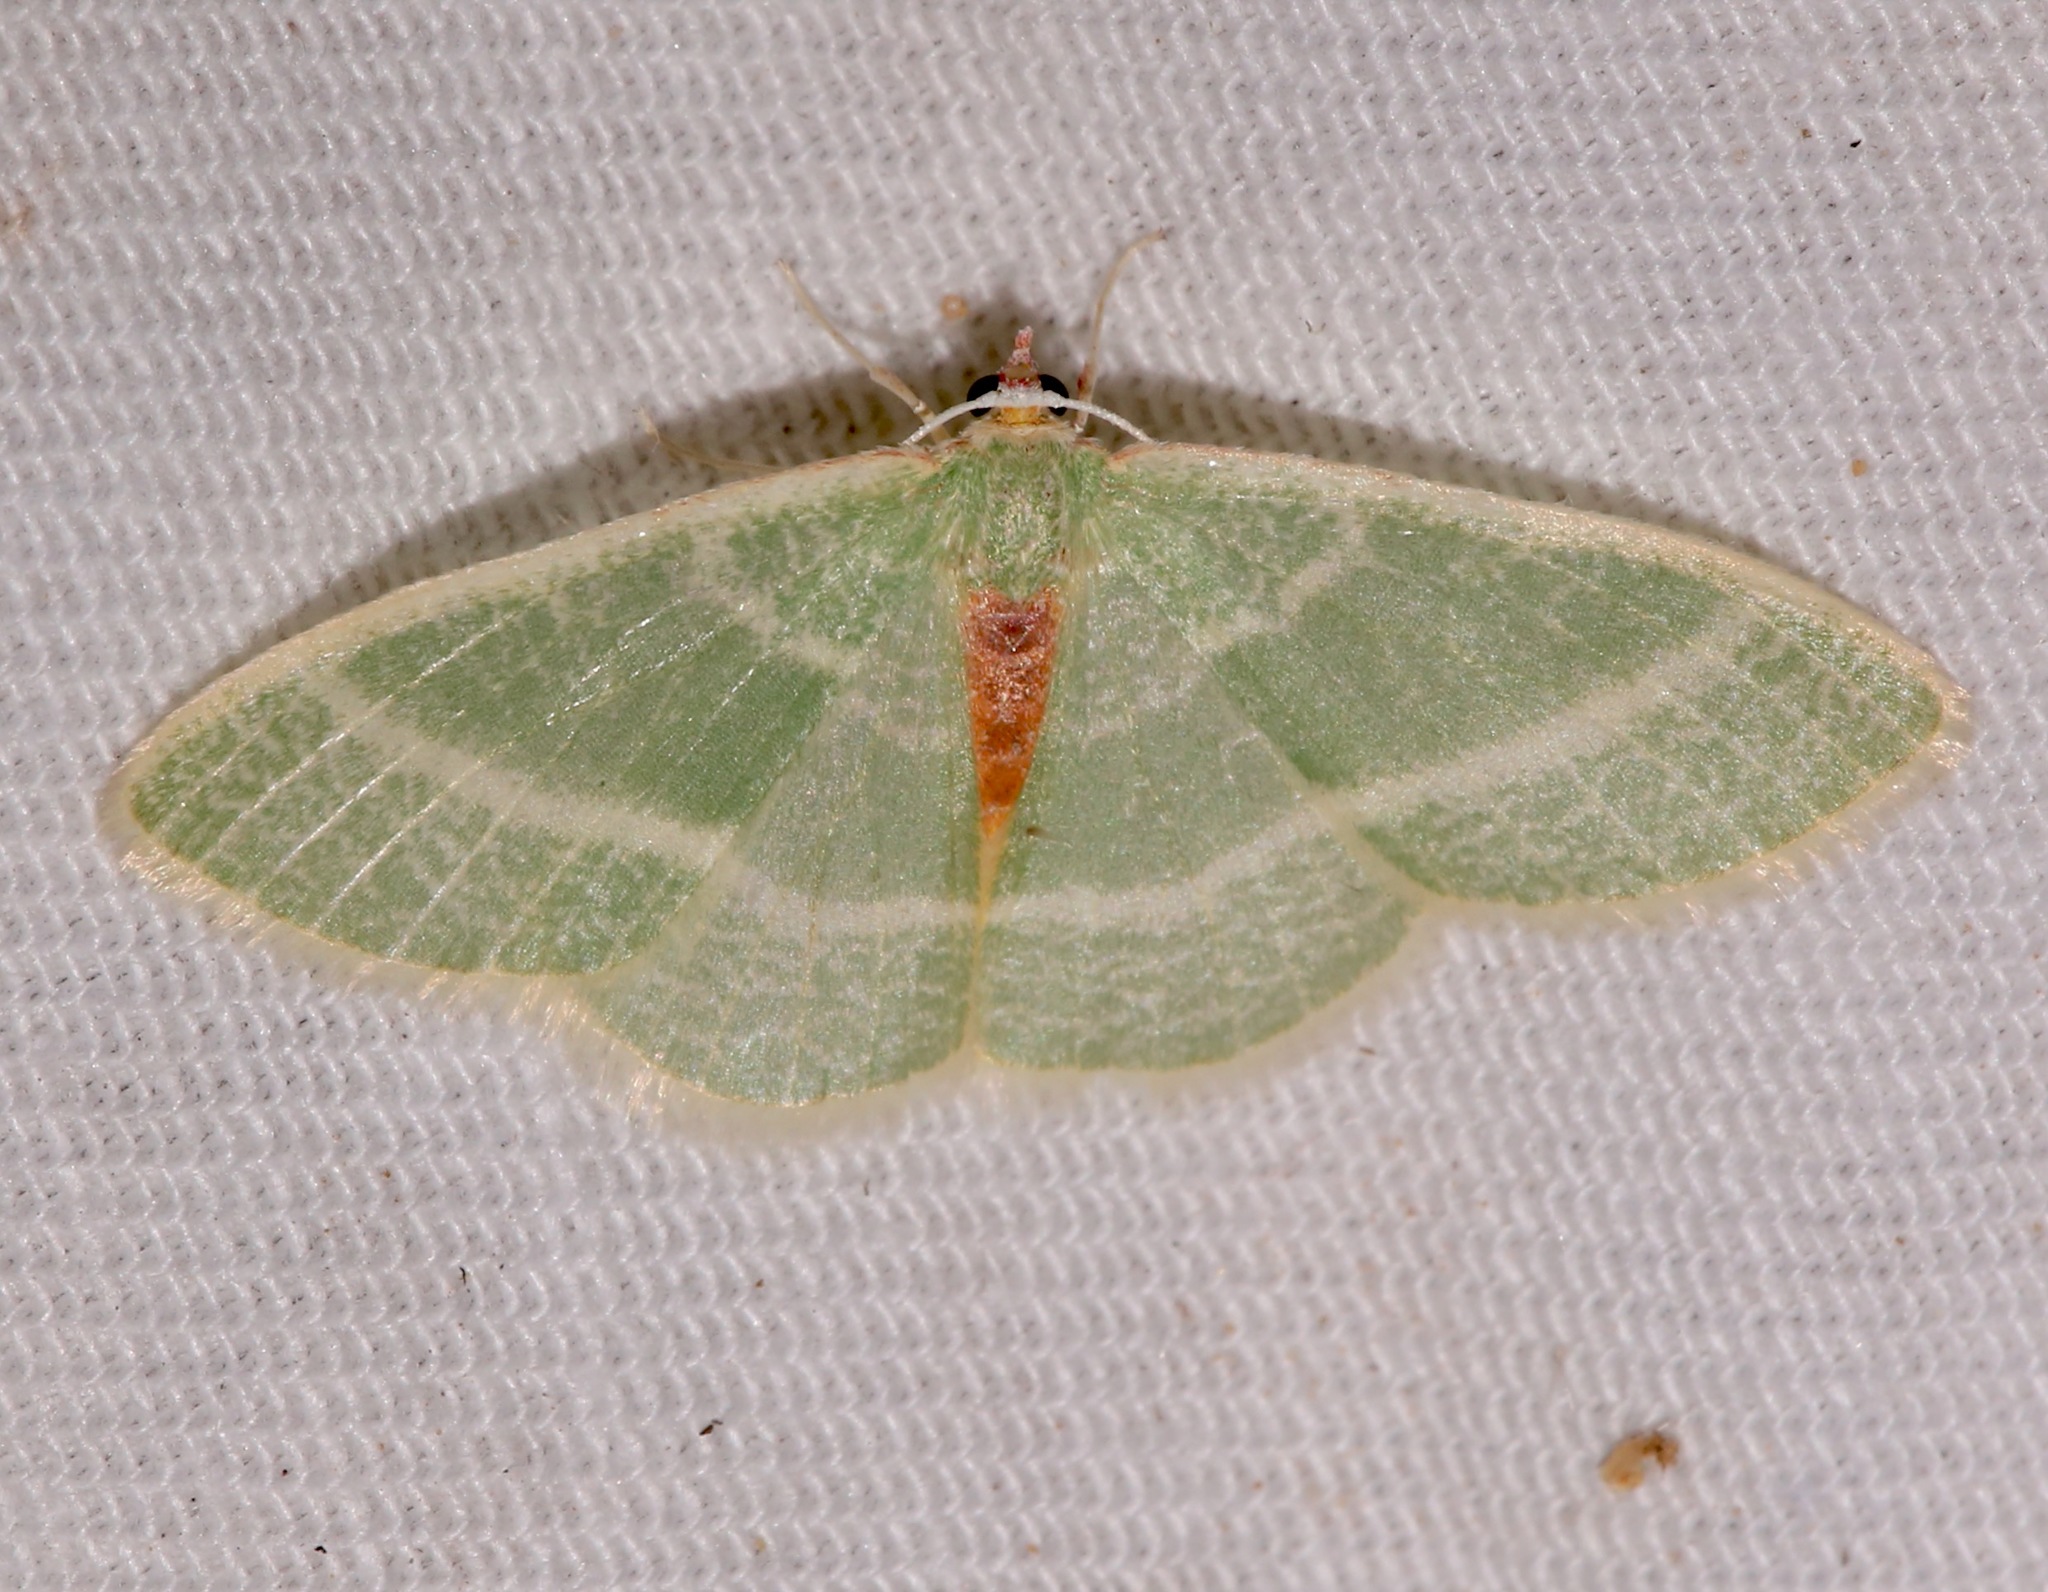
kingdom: Animalia
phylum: Arthropoda
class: Insecta
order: Lepidoptera
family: Geometridae
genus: Nemoria
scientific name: Nemoria arizonaria
